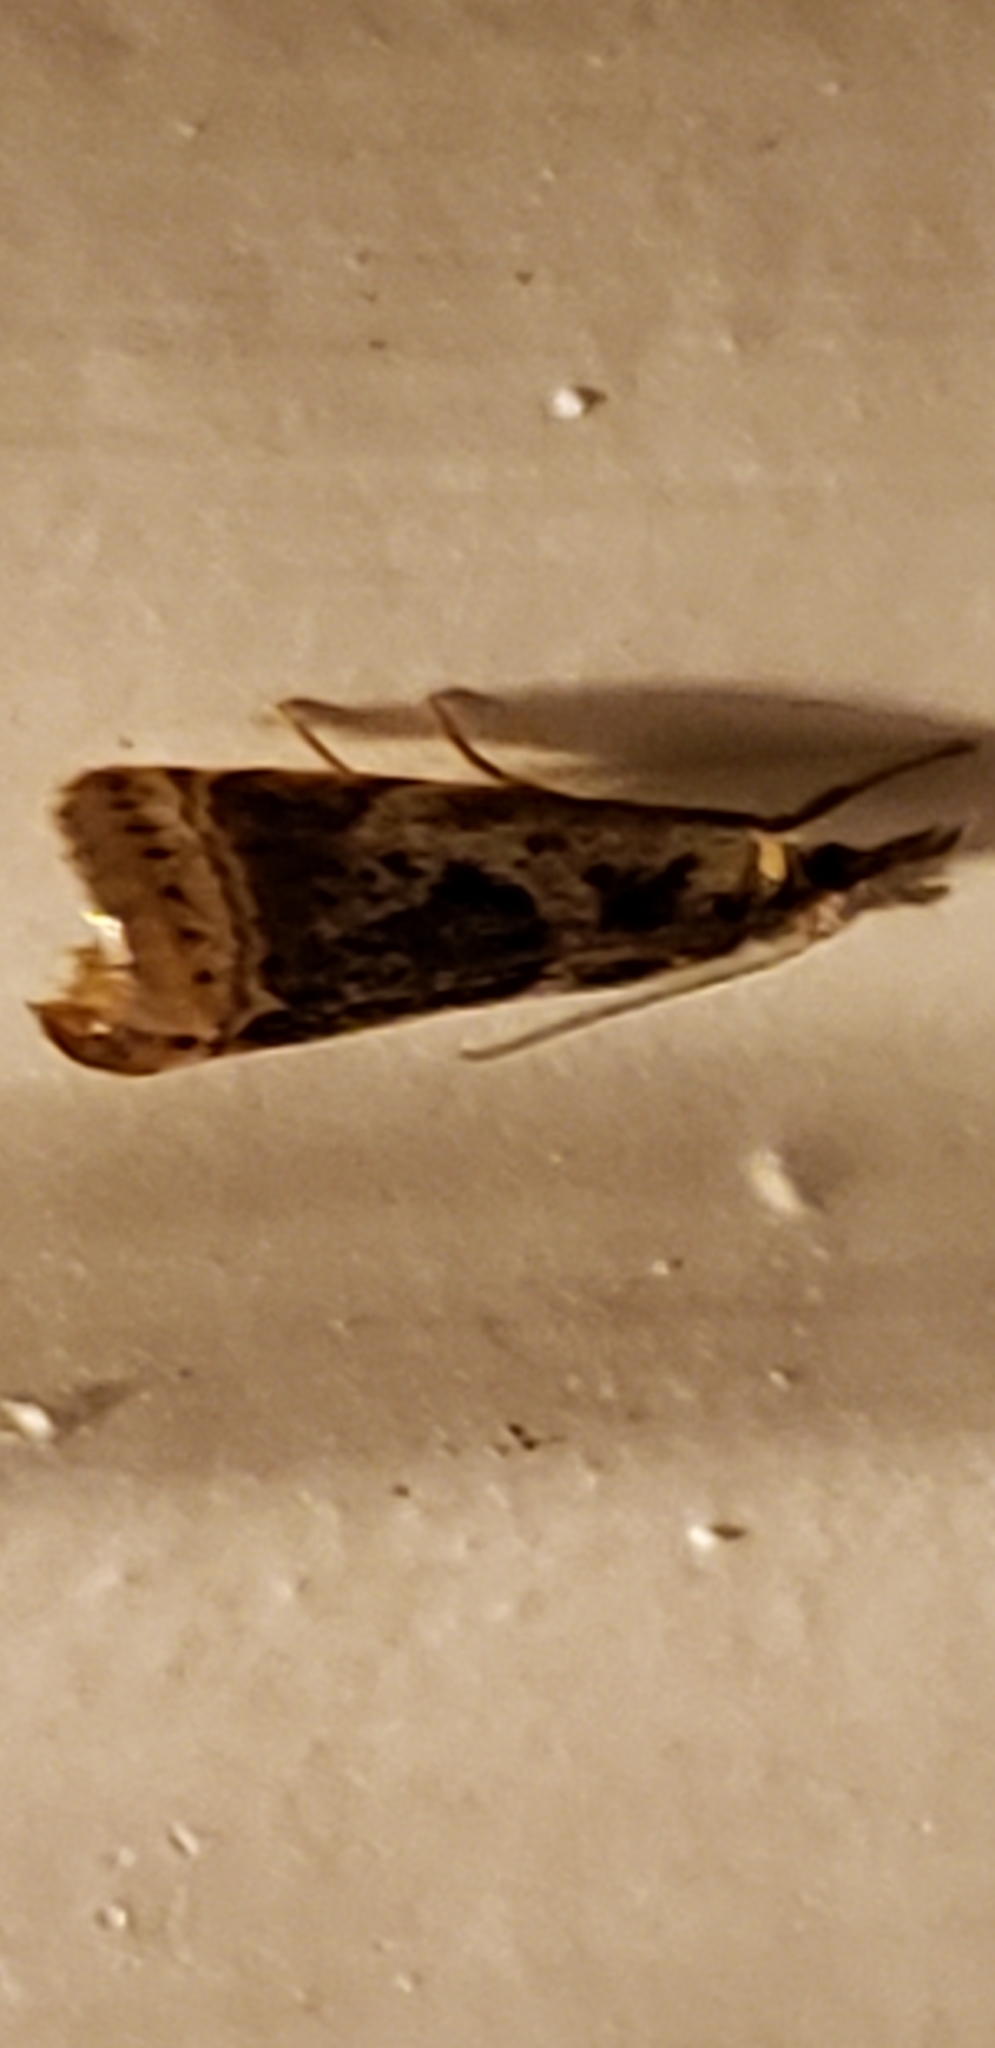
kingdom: Animalia
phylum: Arthropoda
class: Insecta
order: Lepidoptera
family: Crambidae
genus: Microcrambus
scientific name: Microcrambus elegans
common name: Elegant grass-veneer
